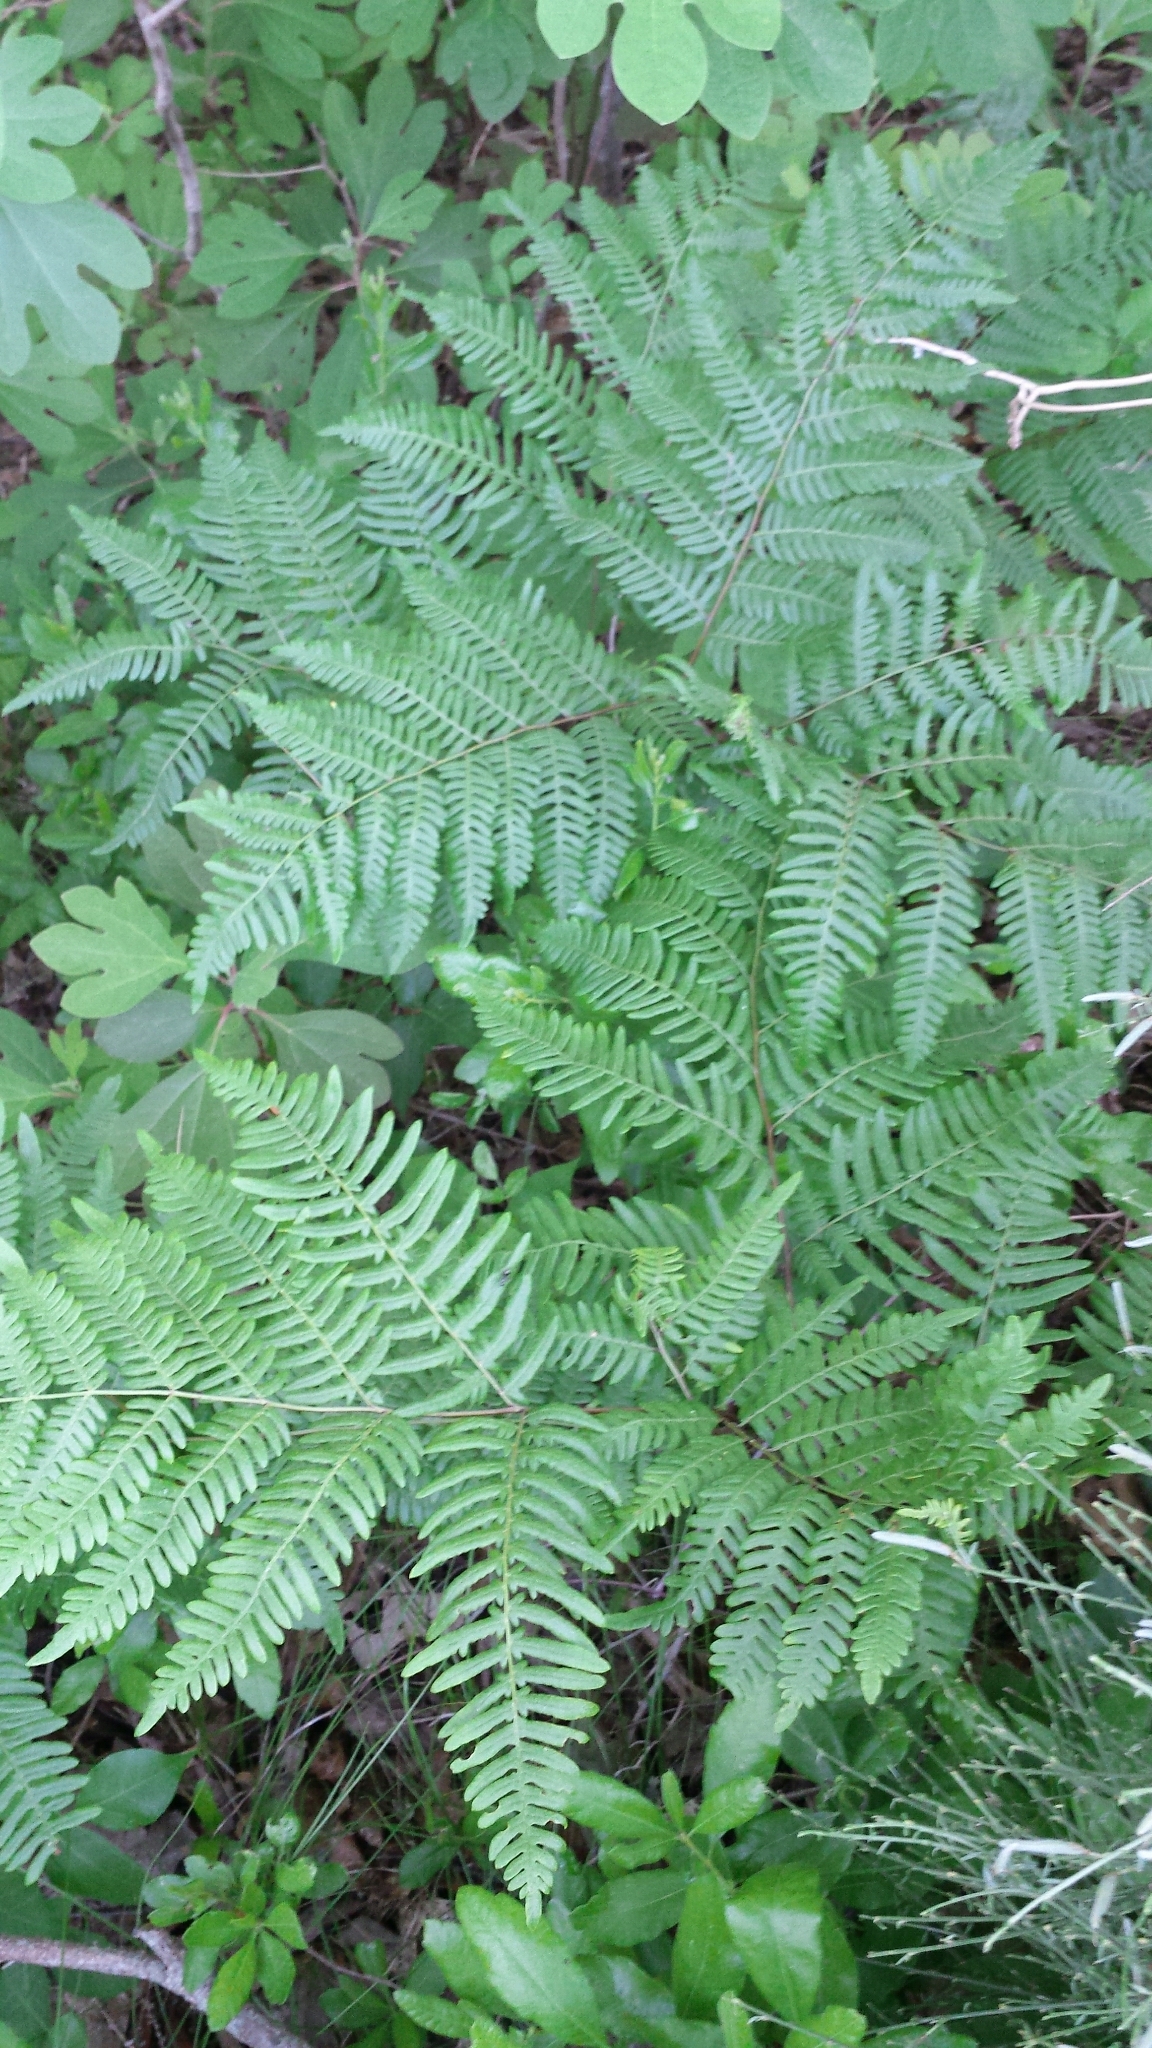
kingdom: Plantae
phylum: Tracheophyta
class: Polypodiopsida
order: Polypodiales
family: Dennstaedtiaceae
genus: Pteridium
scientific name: Pteridium aquilinum
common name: Bracken
